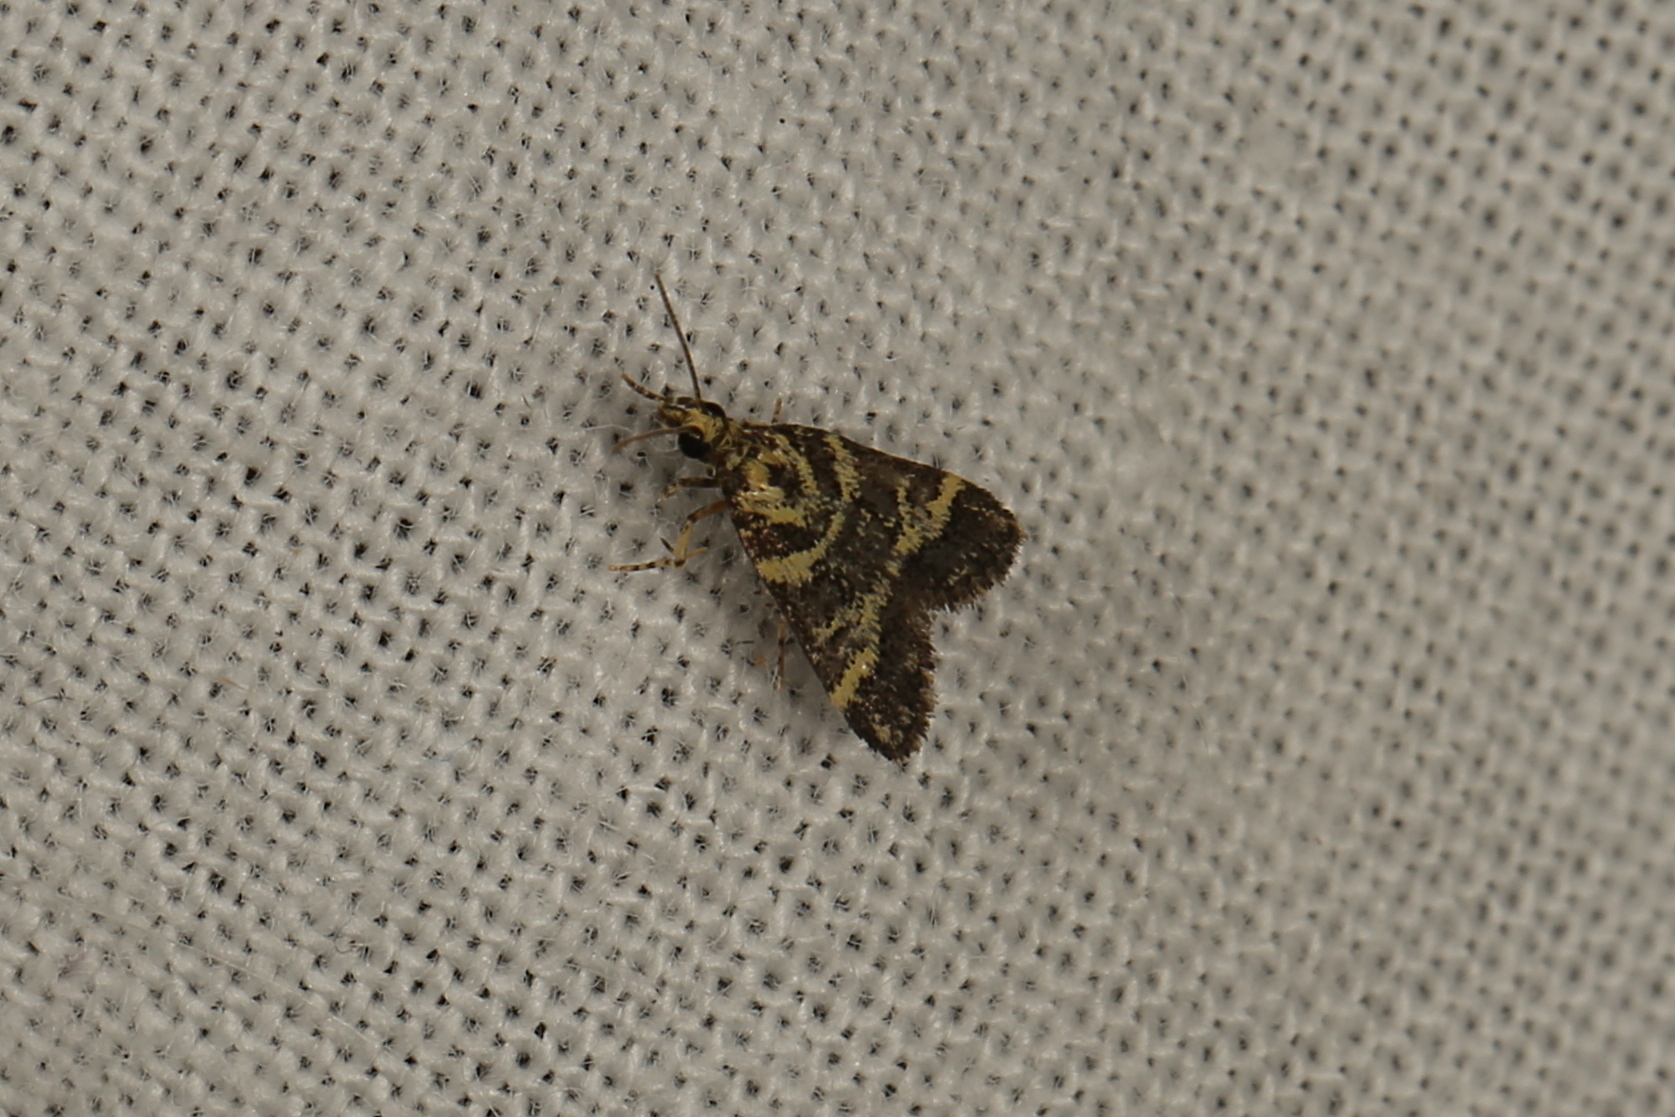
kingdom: Animalia
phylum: Arthropoda
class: Insecta
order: Lepidoptera
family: Crambidae
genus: Scoparia
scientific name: Scoparia spelaea
